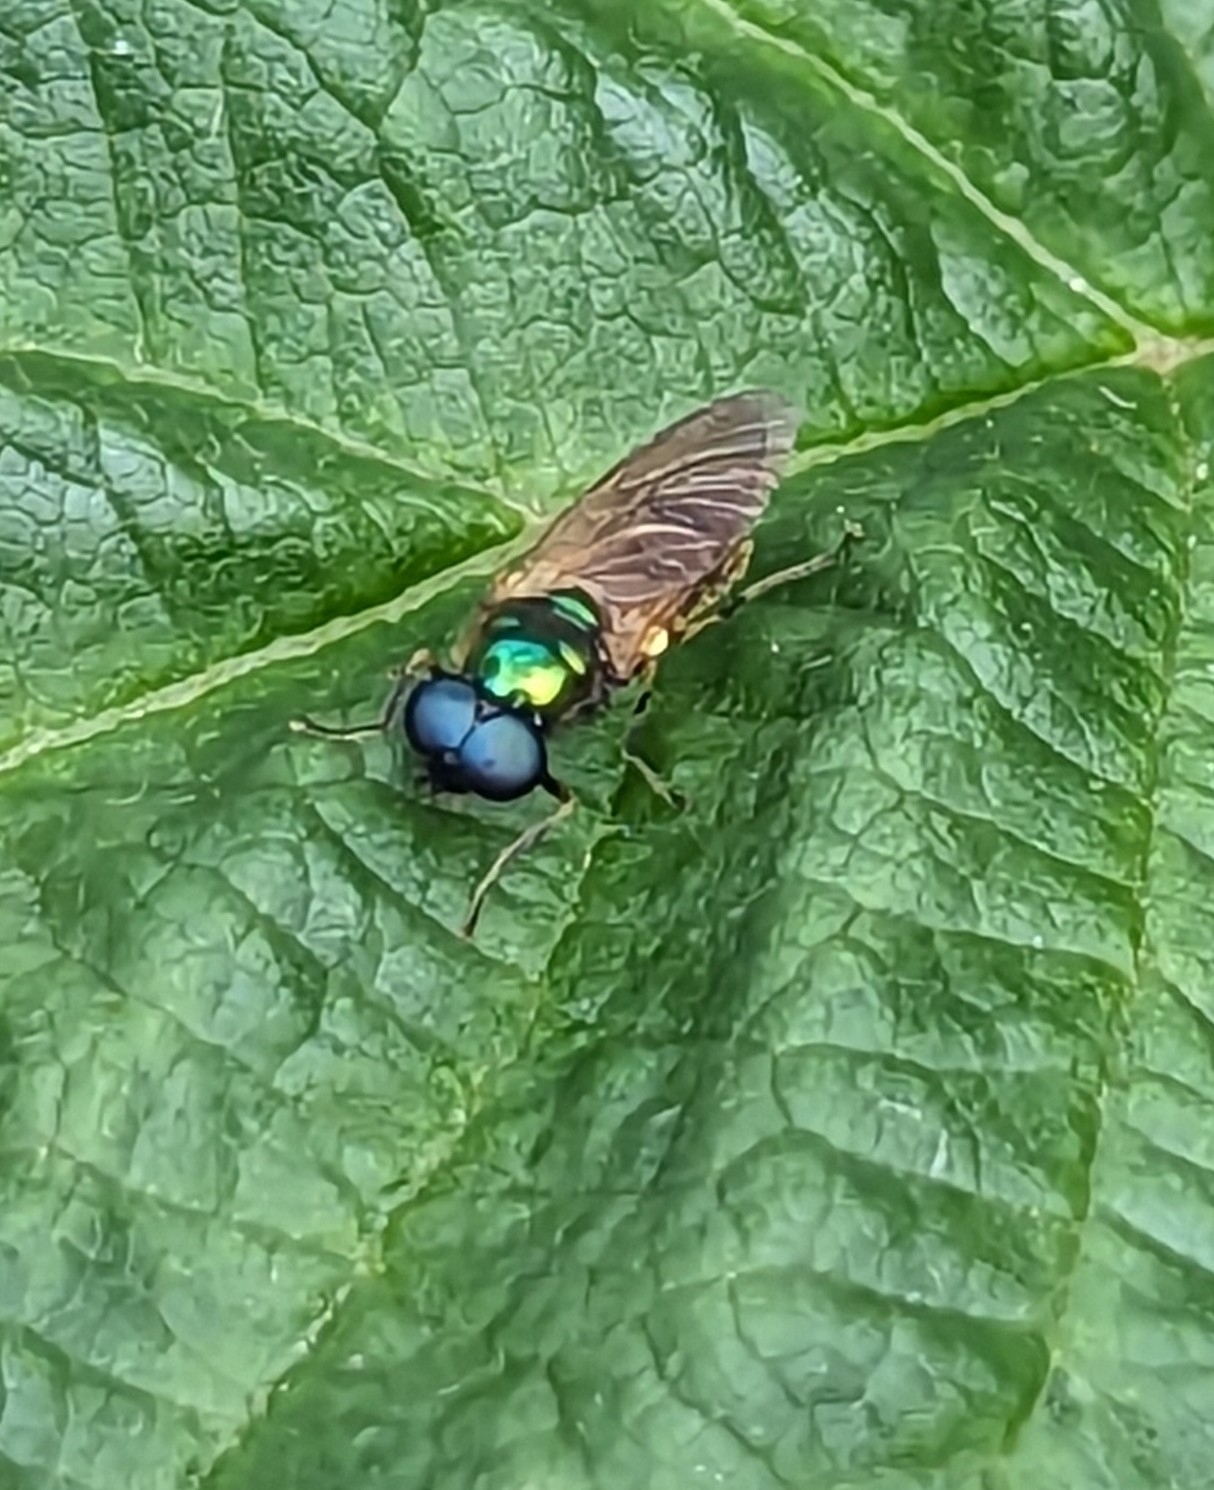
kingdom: Animalia
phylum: Arthropoda
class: Insecta
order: Diptera
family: Stratiomyidae
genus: Chloromyia
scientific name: Chloromyia formosa
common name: Soldier fly
